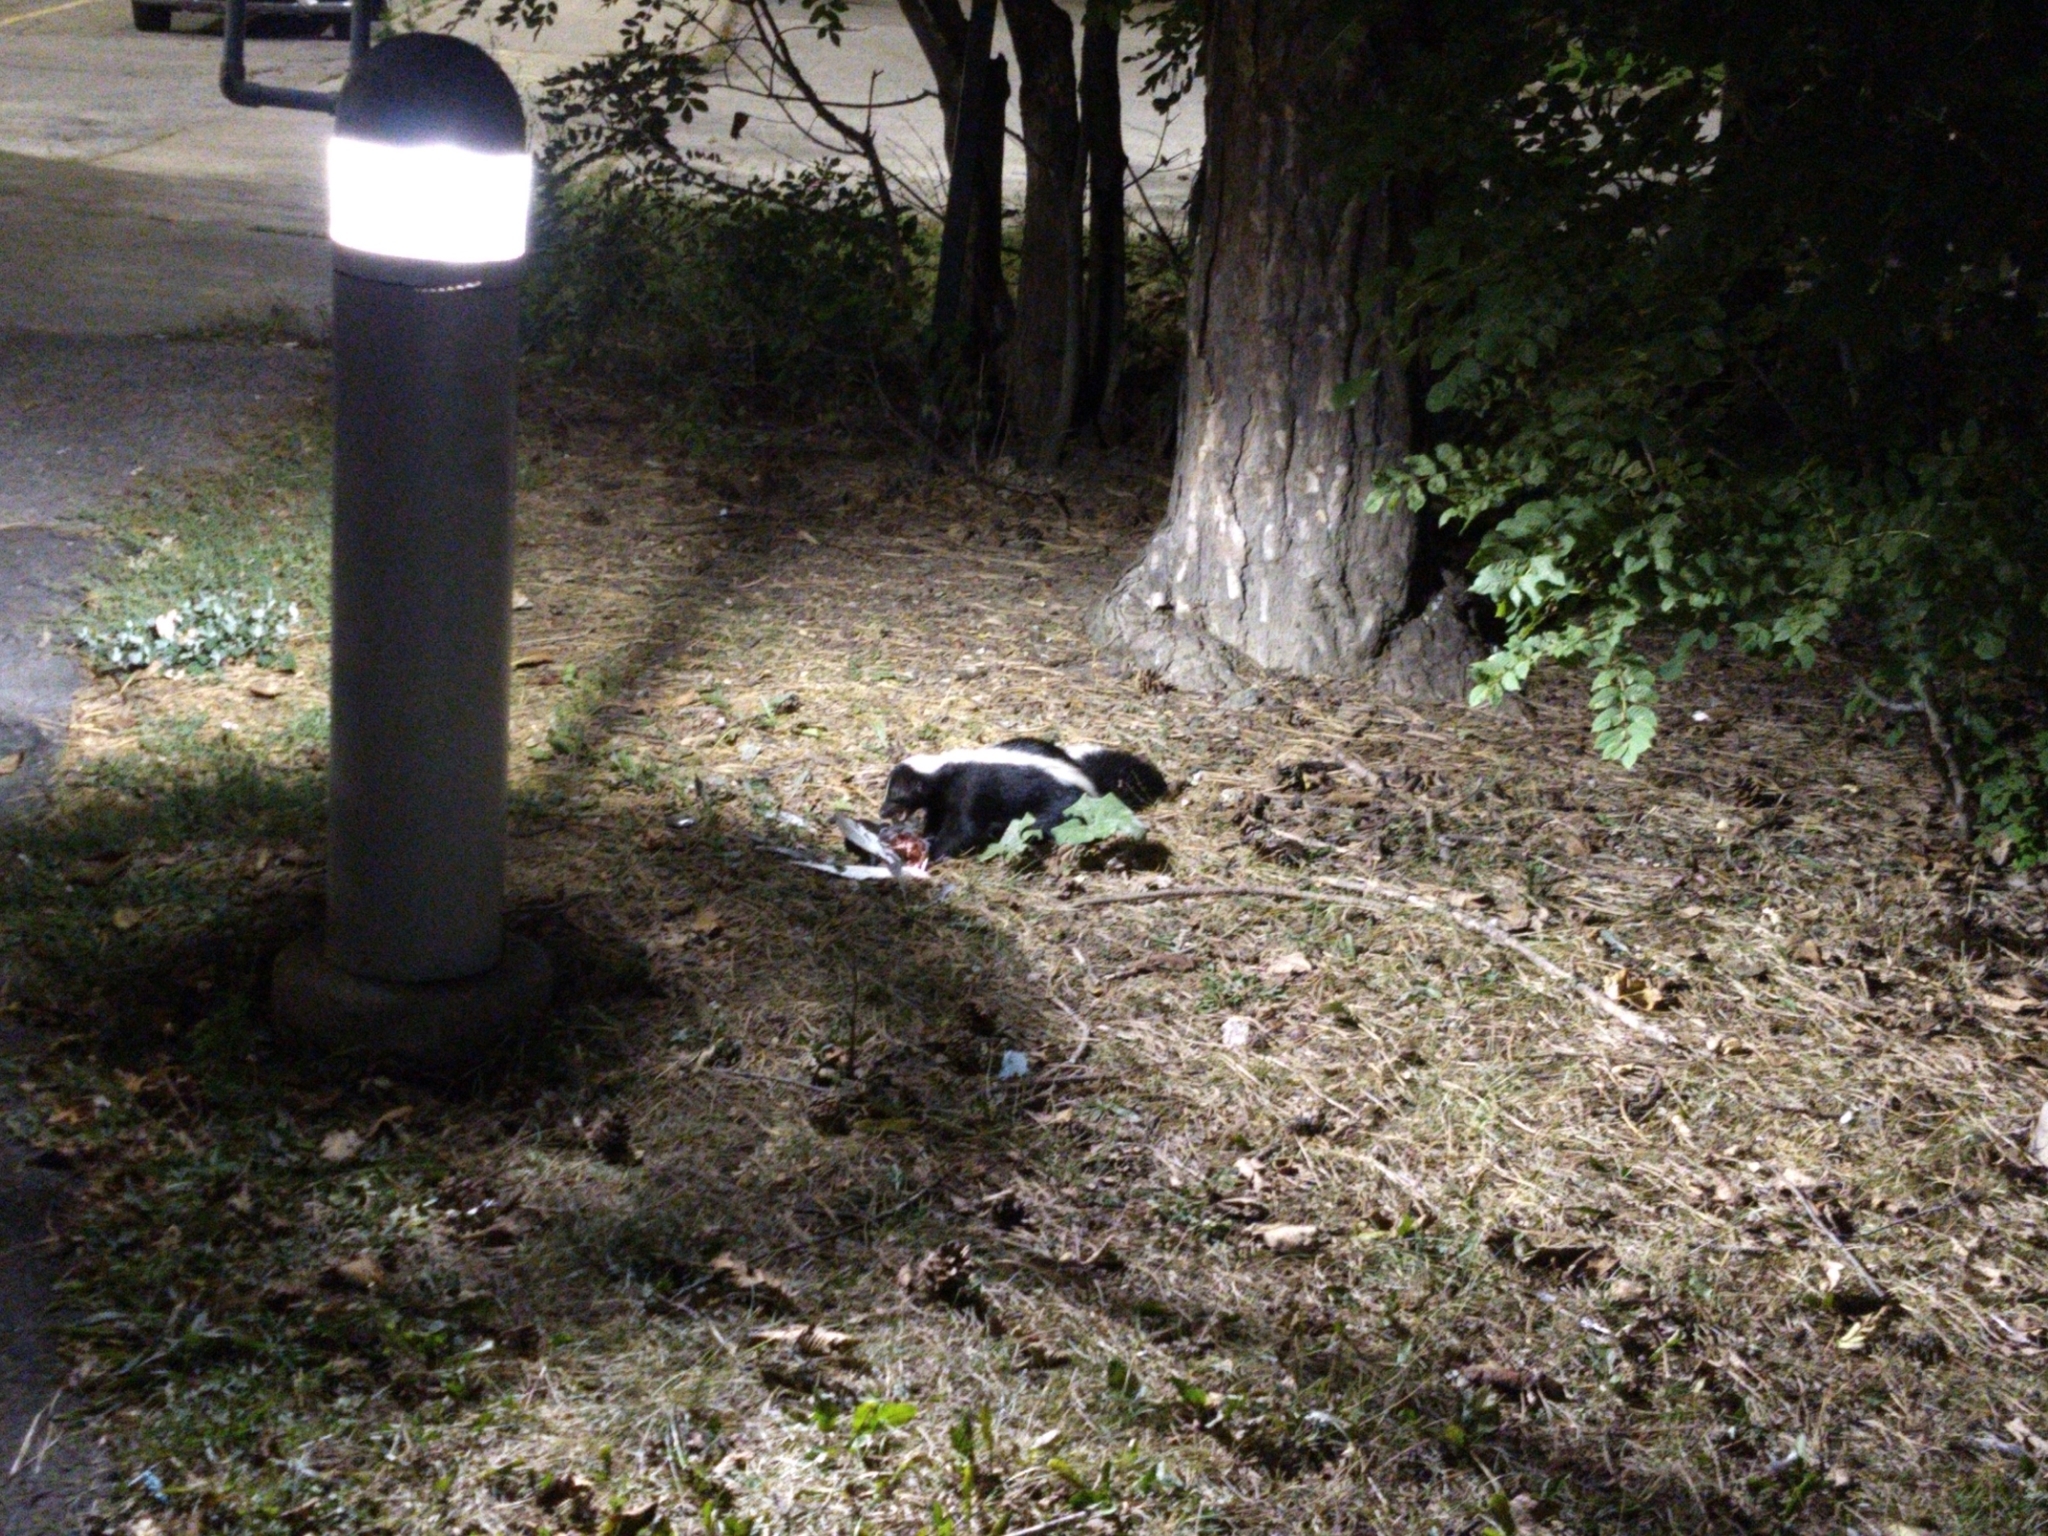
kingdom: Animalia
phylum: Chordata
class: Mammalia
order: Carnivora
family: Mephitidae
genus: Mephitis
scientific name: Mephitis mephitis
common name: Striped skunk
